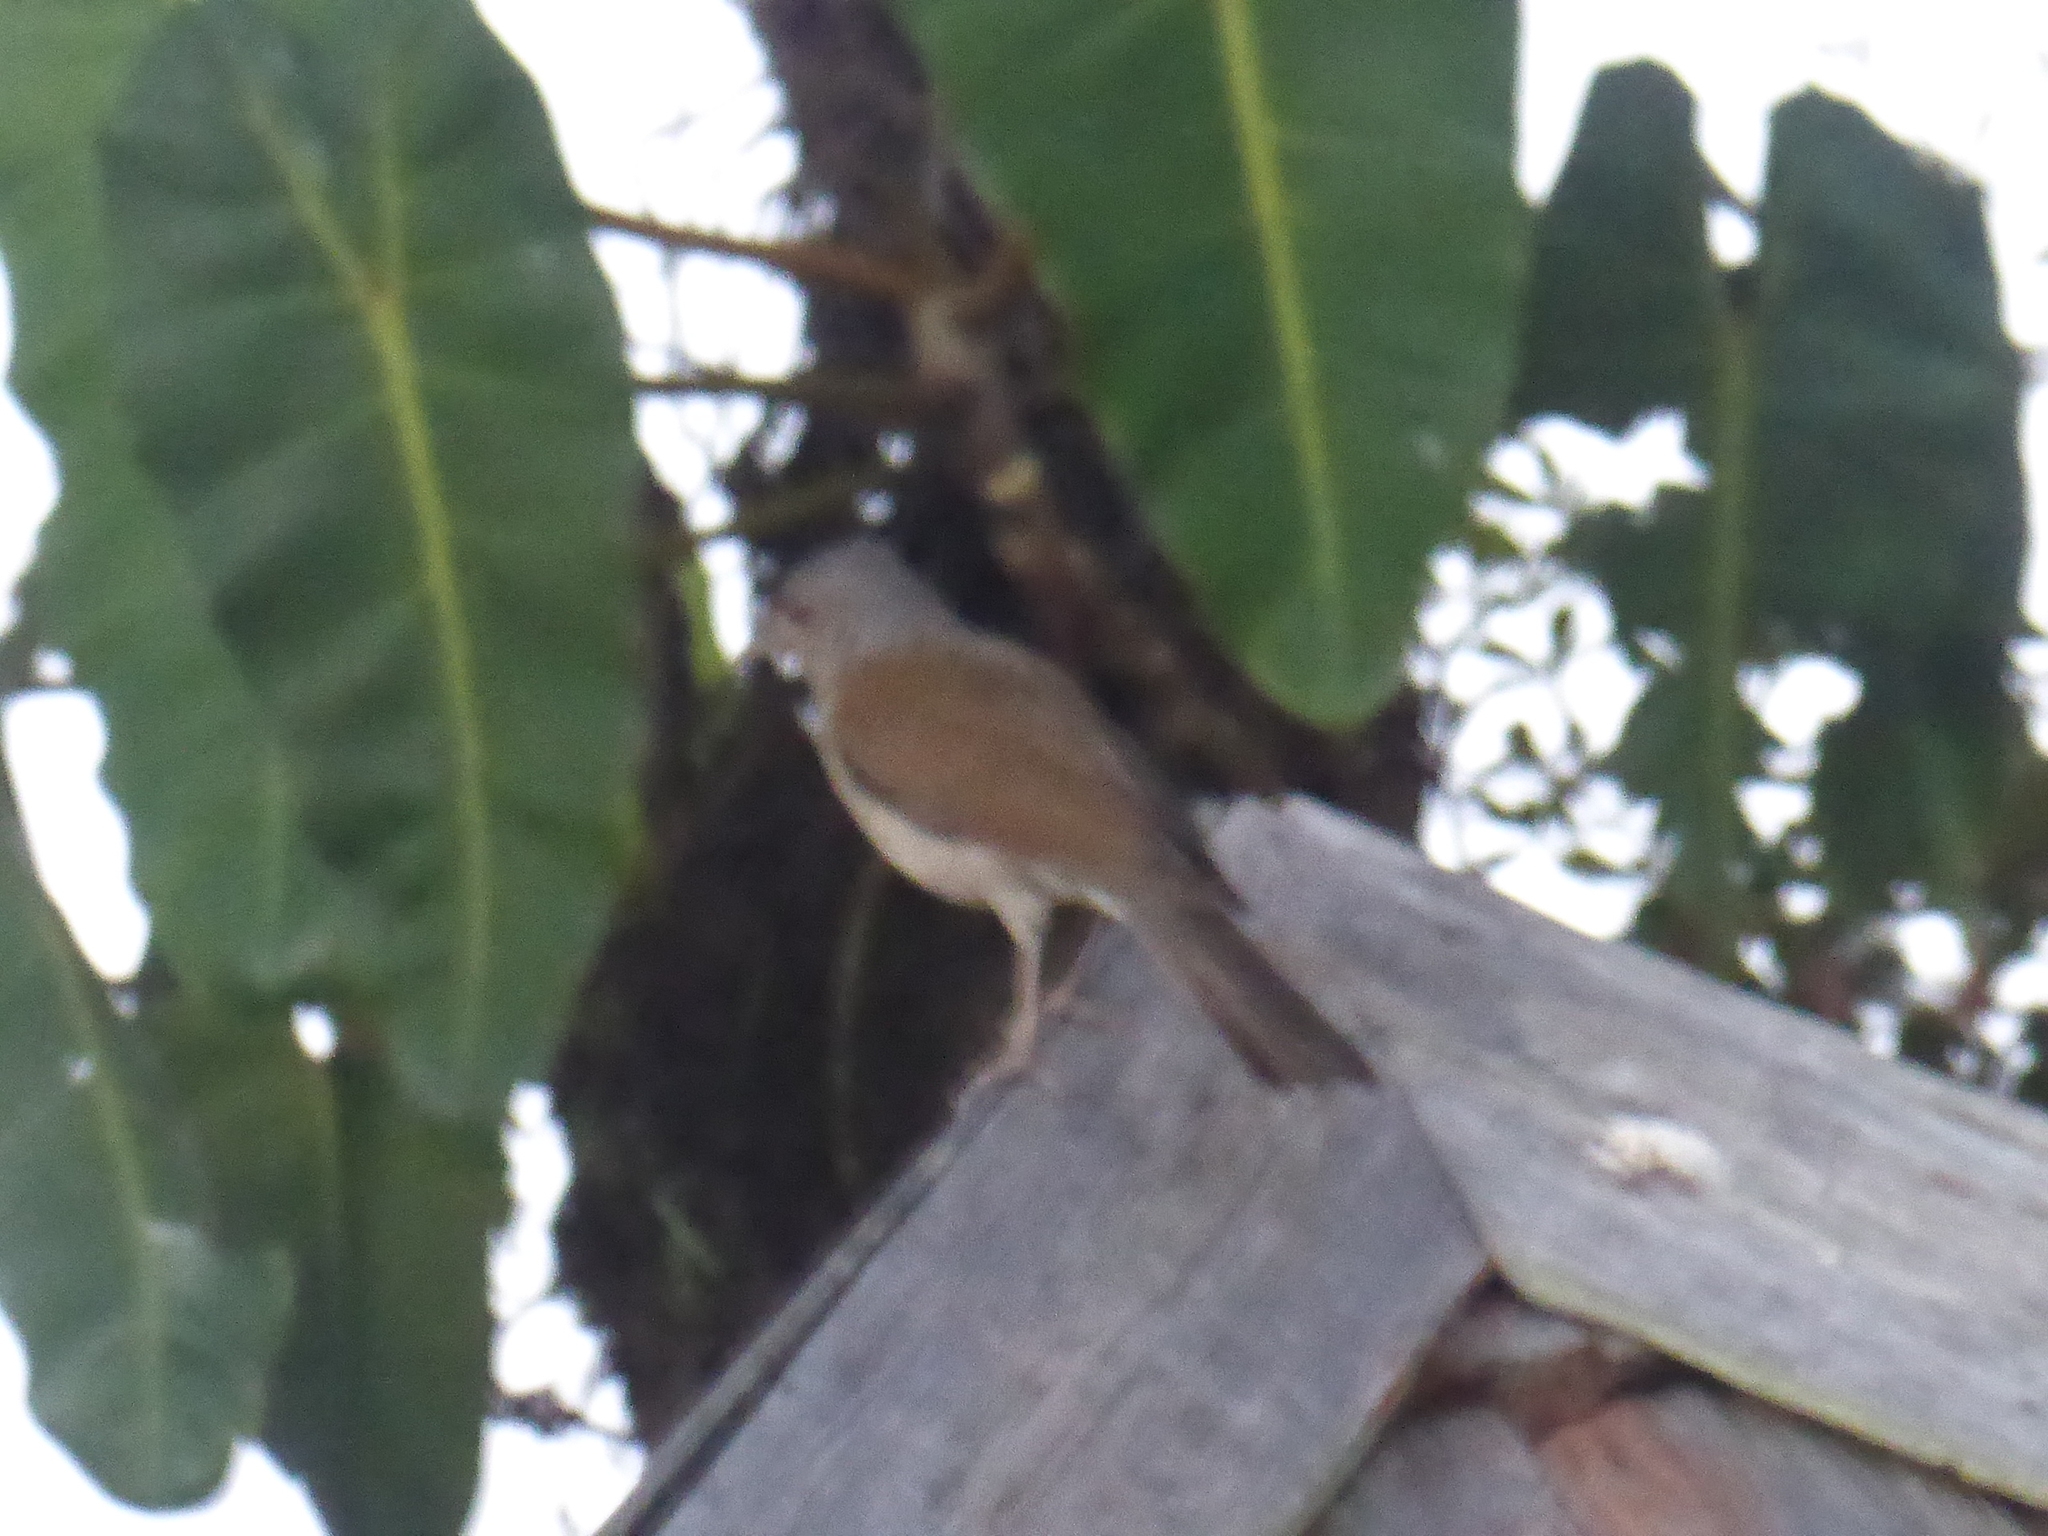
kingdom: Animalia
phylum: Chordata
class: Aves
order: Passeriformes
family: Turdidae
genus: Turdus
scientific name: Turdus leucomelas
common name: Pale-breasted thrush
